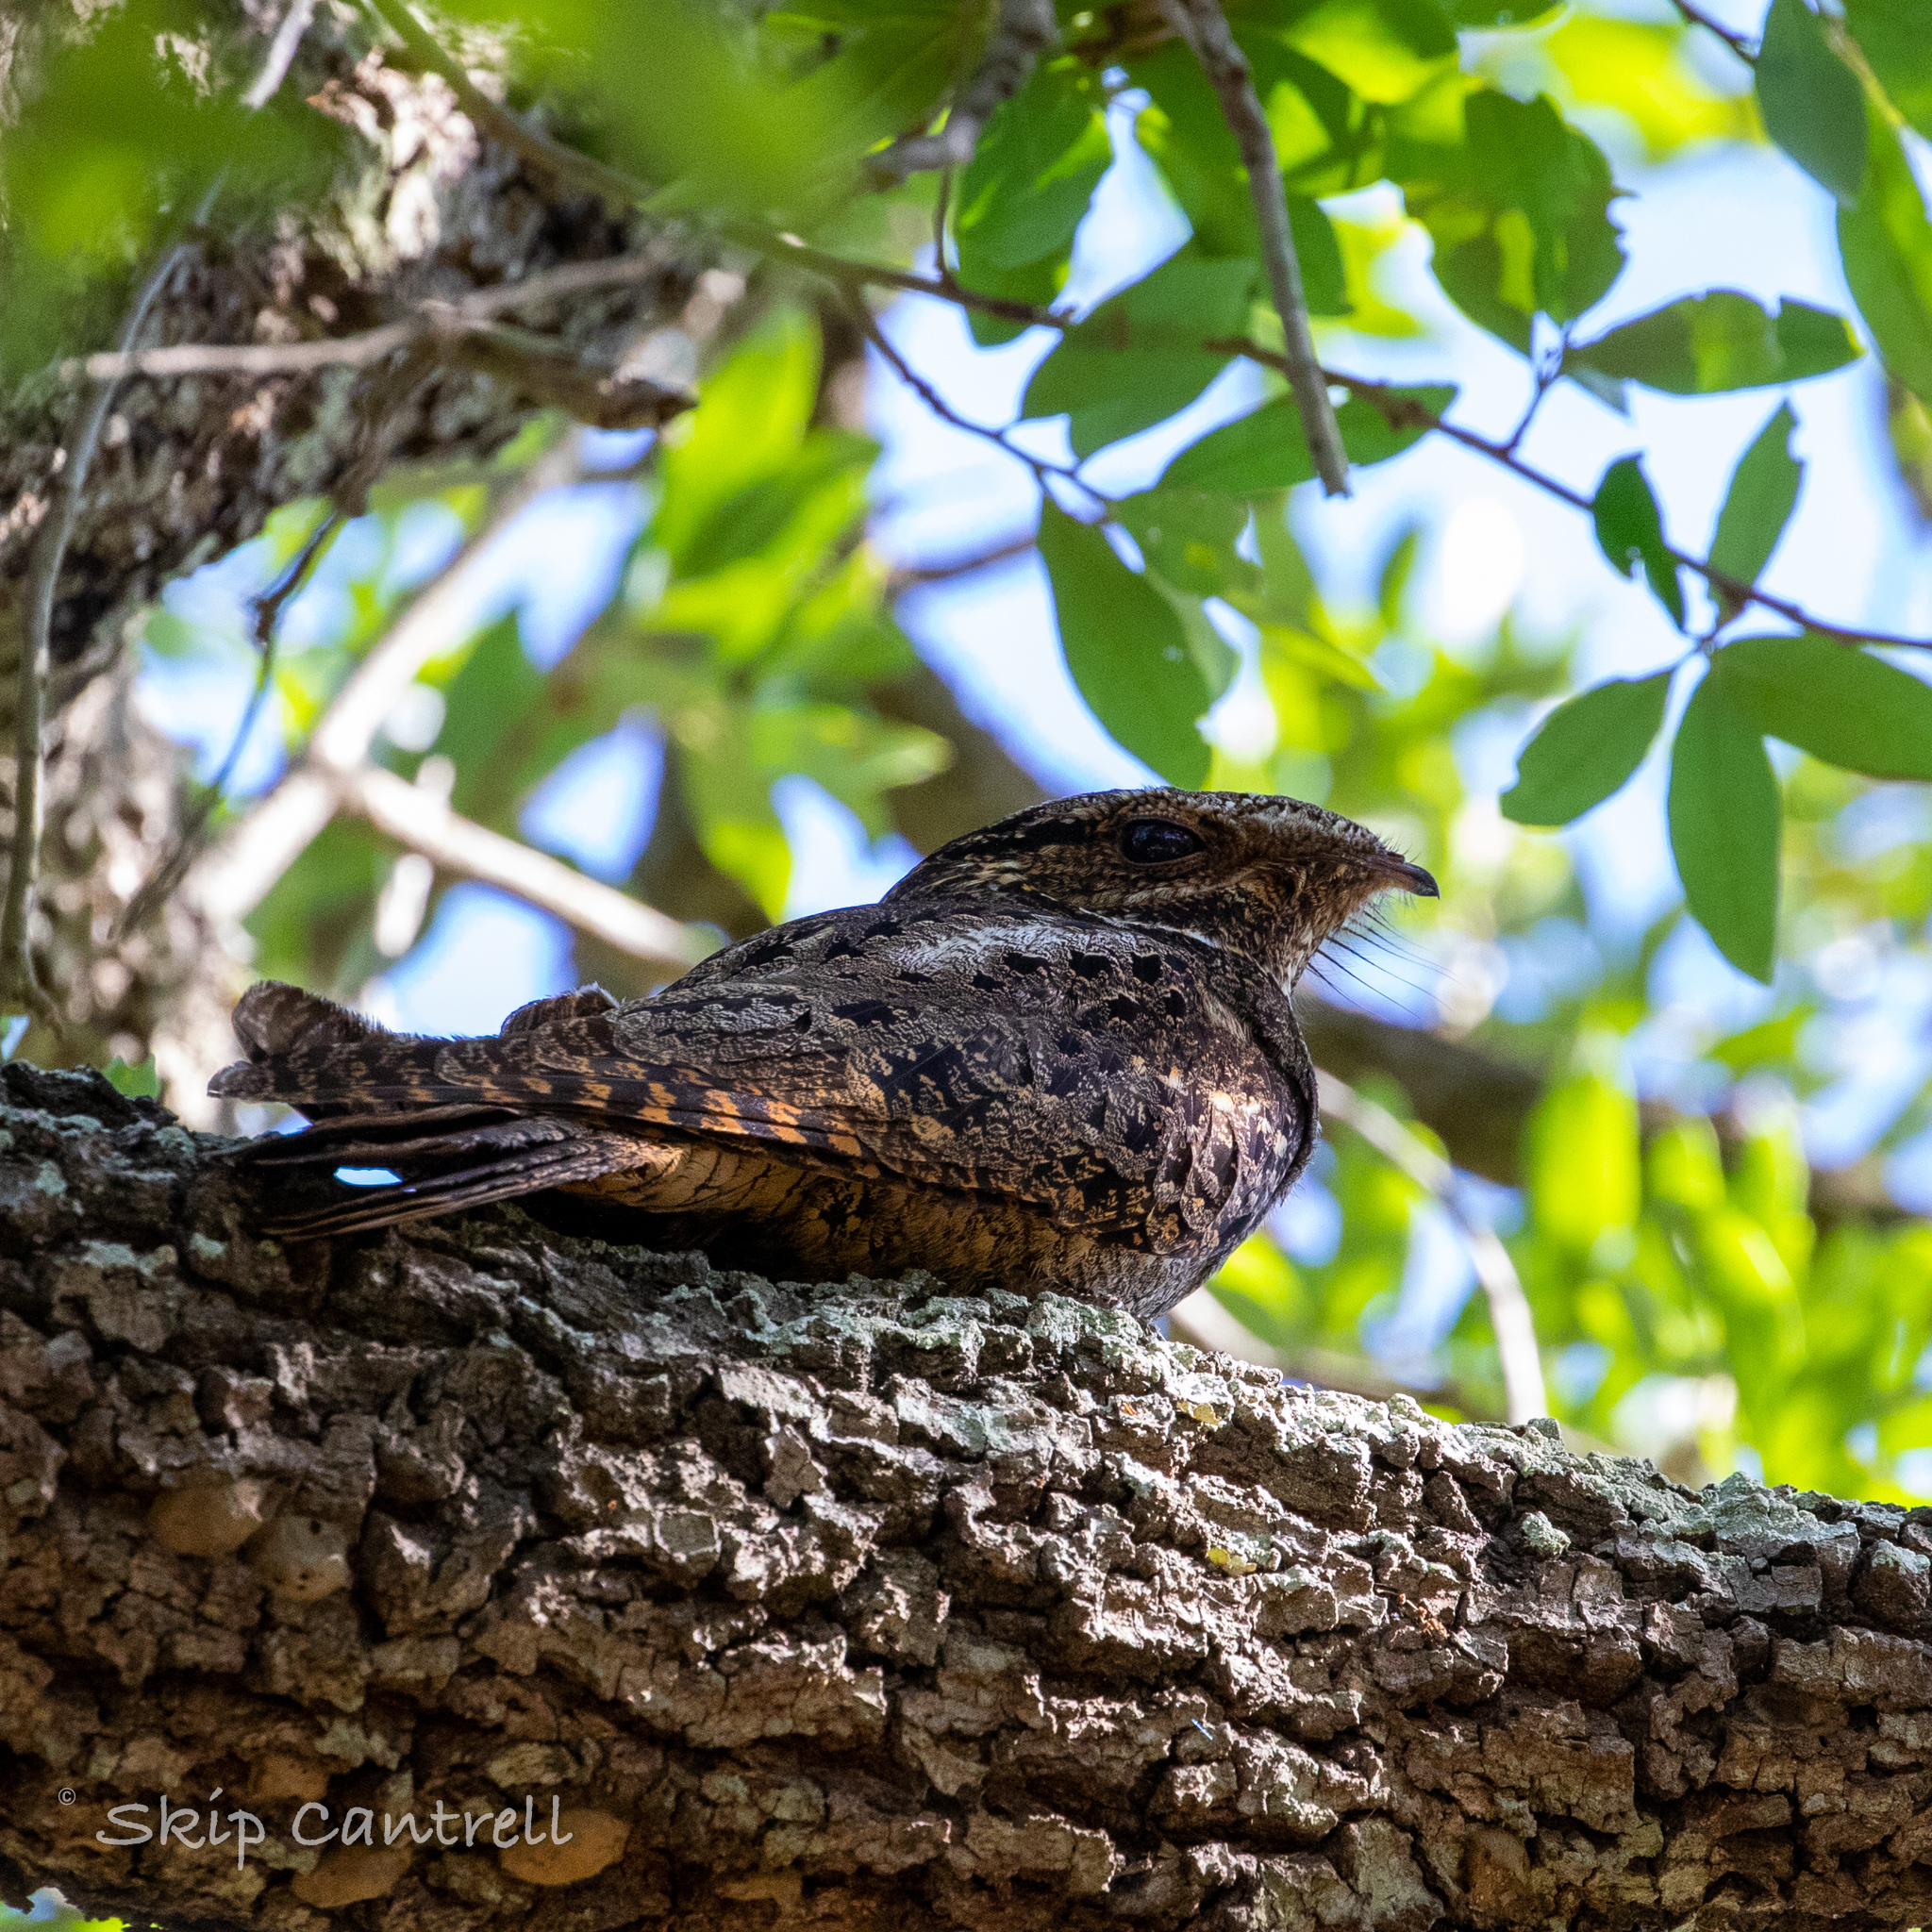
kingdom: Animalia
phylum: Chordata
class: Aves
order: Caprimulgiformes
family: Caprimulgidae
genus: Antrostomus
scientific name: Antrostomus carolinensis
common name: Chuck-will's-widow
